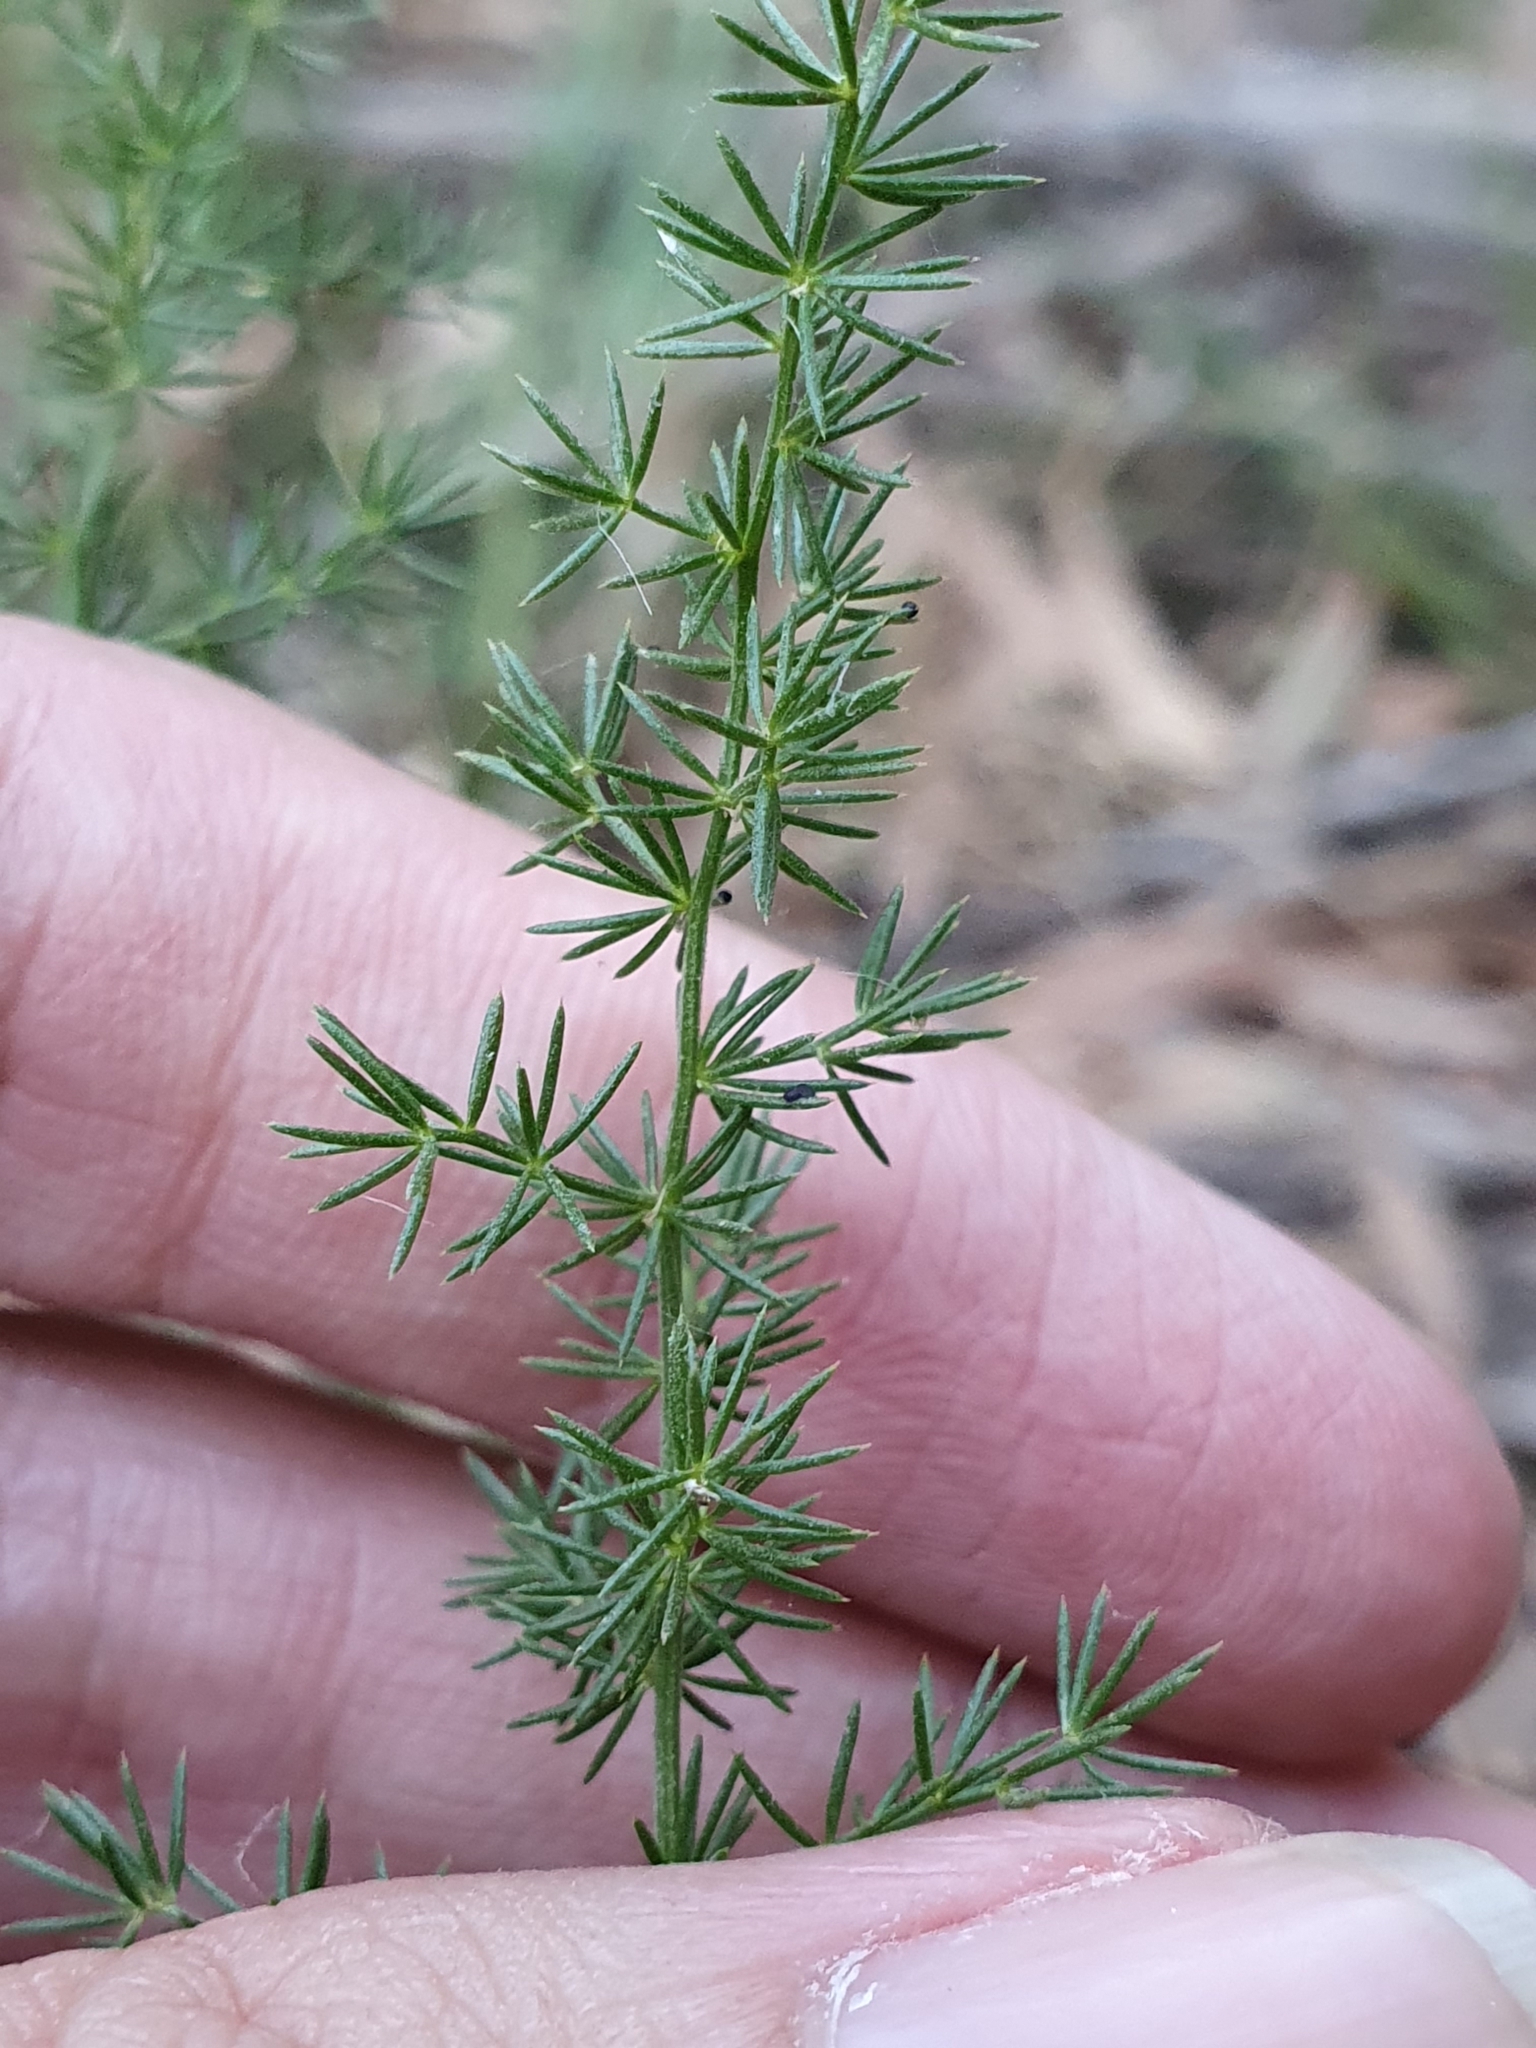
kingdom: Plantae
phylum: Tracheophyta
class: Liliopsida
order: Asparagales
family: Asparagaceae
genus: Asparagus
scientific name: Asparagus acutifolius
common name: Wild asparagus
